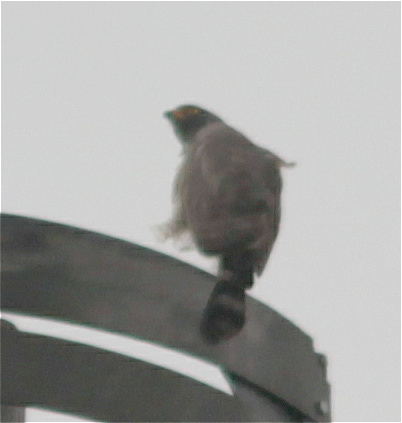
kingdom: Animalia
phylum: Chordata
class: Aves
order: Accipitriformes
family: Accipitridae
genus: Rupornis
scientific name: Rupornis magnirostris
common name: Roadside hawk
